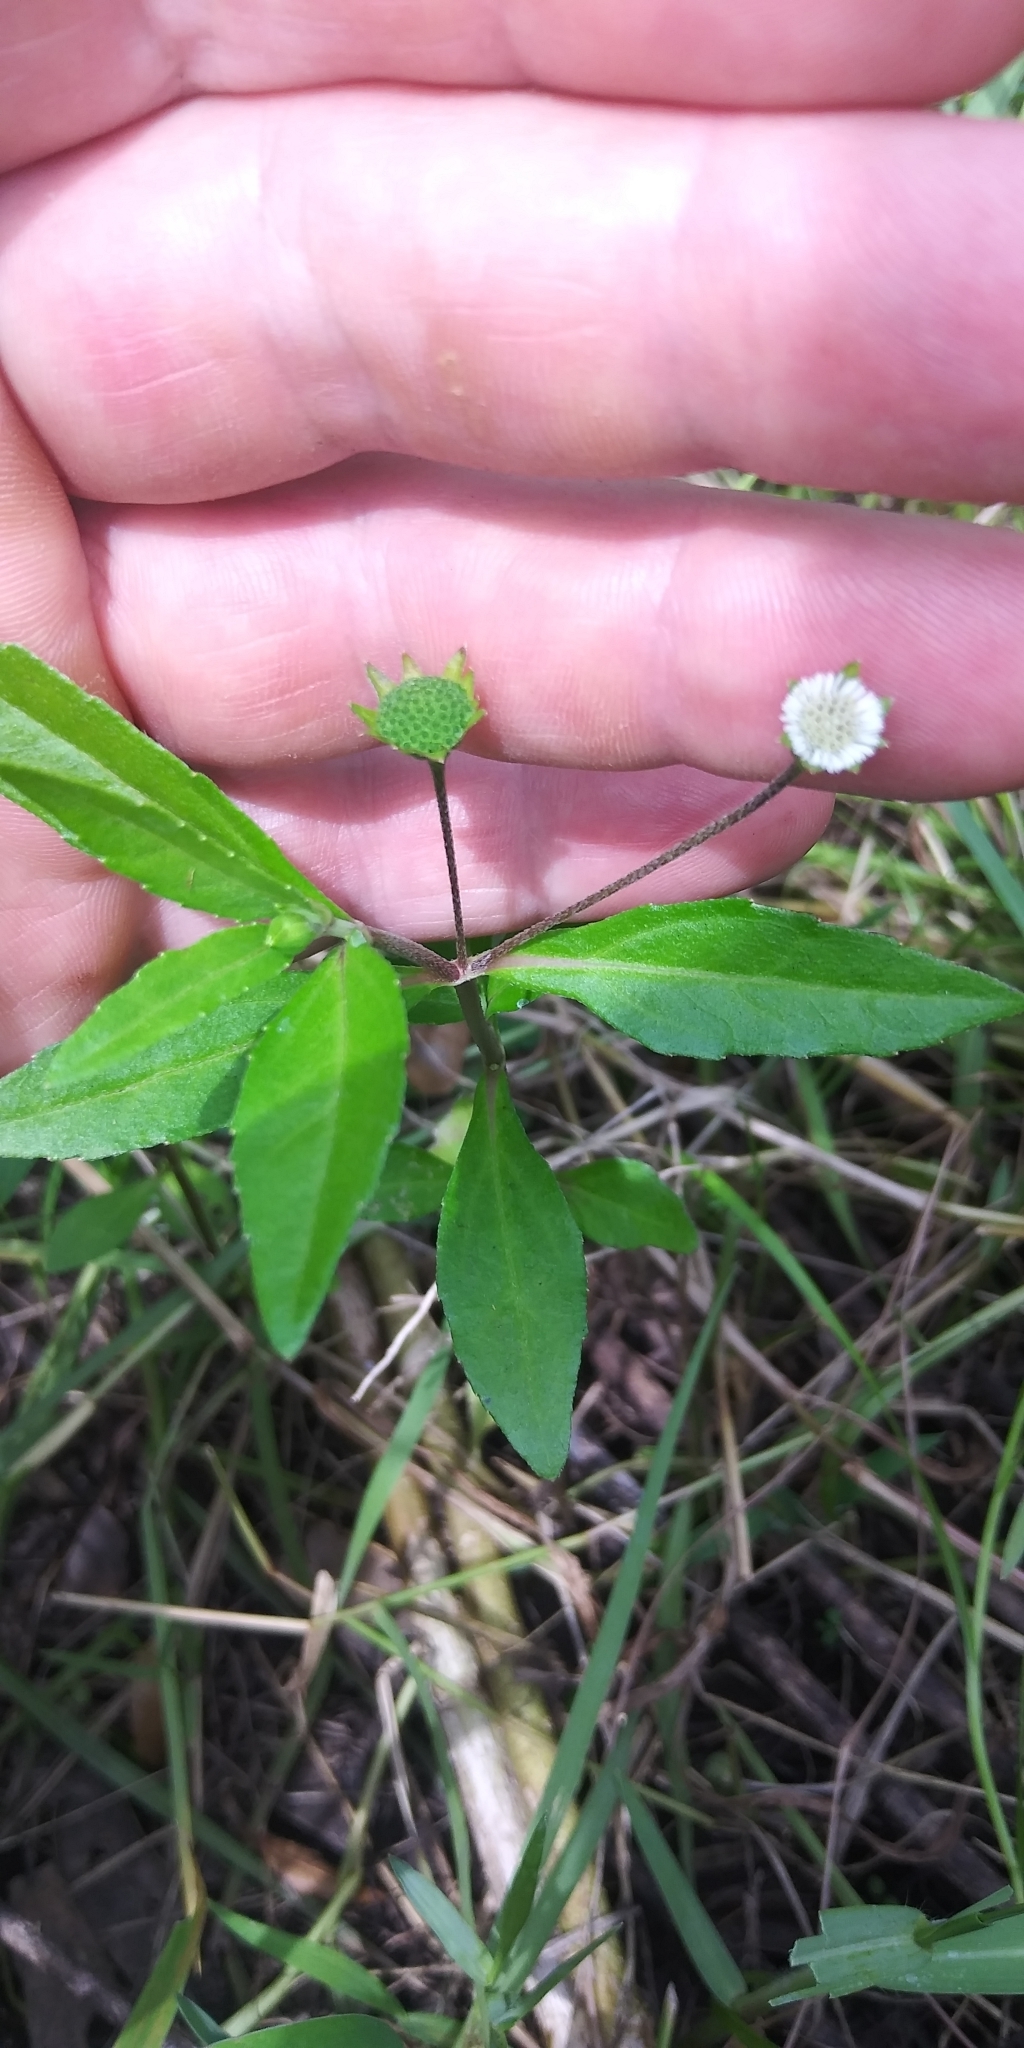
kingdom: Plantae
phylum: Tracheophyta
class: Magnoliopsida
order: Asterales
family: Asteraceae
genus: Eclipta
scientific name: Eclipta prostrata
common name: False daisy
